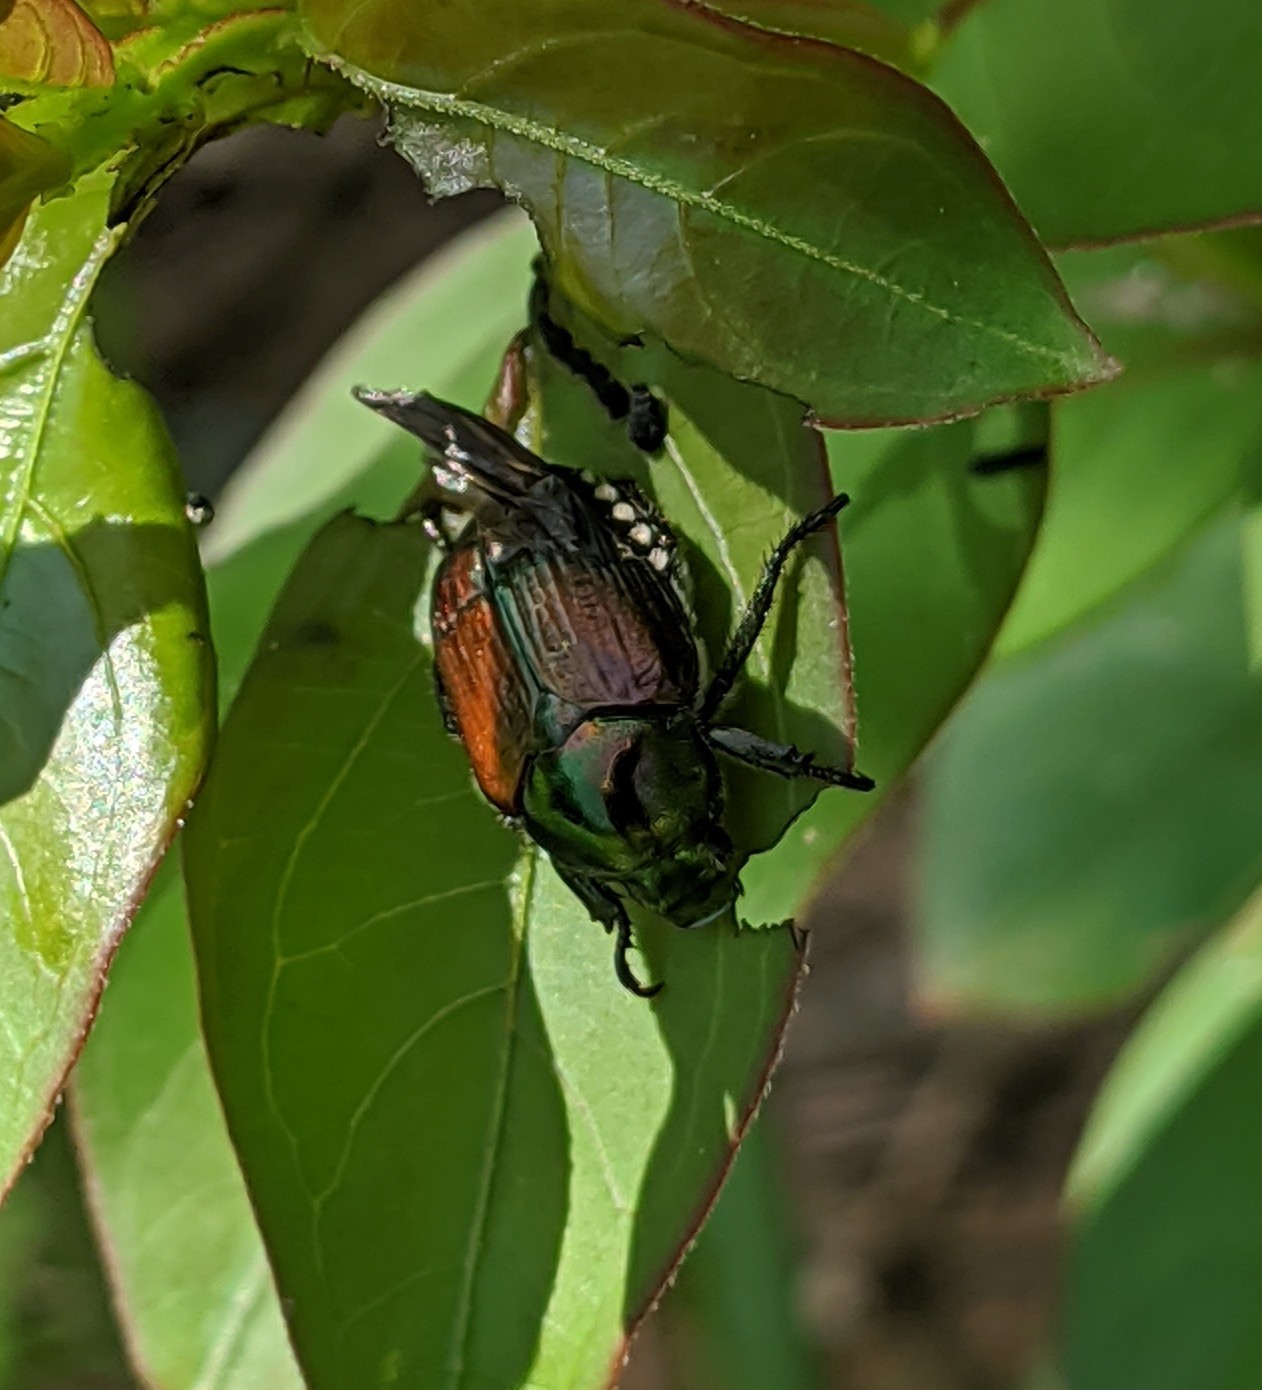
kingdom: Animalia
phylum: Arthropoda
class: Insecta
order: Coleoptera
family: Scarabaeidae
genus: Popillia
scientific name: Popillia japonica
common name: Japanese beetle
